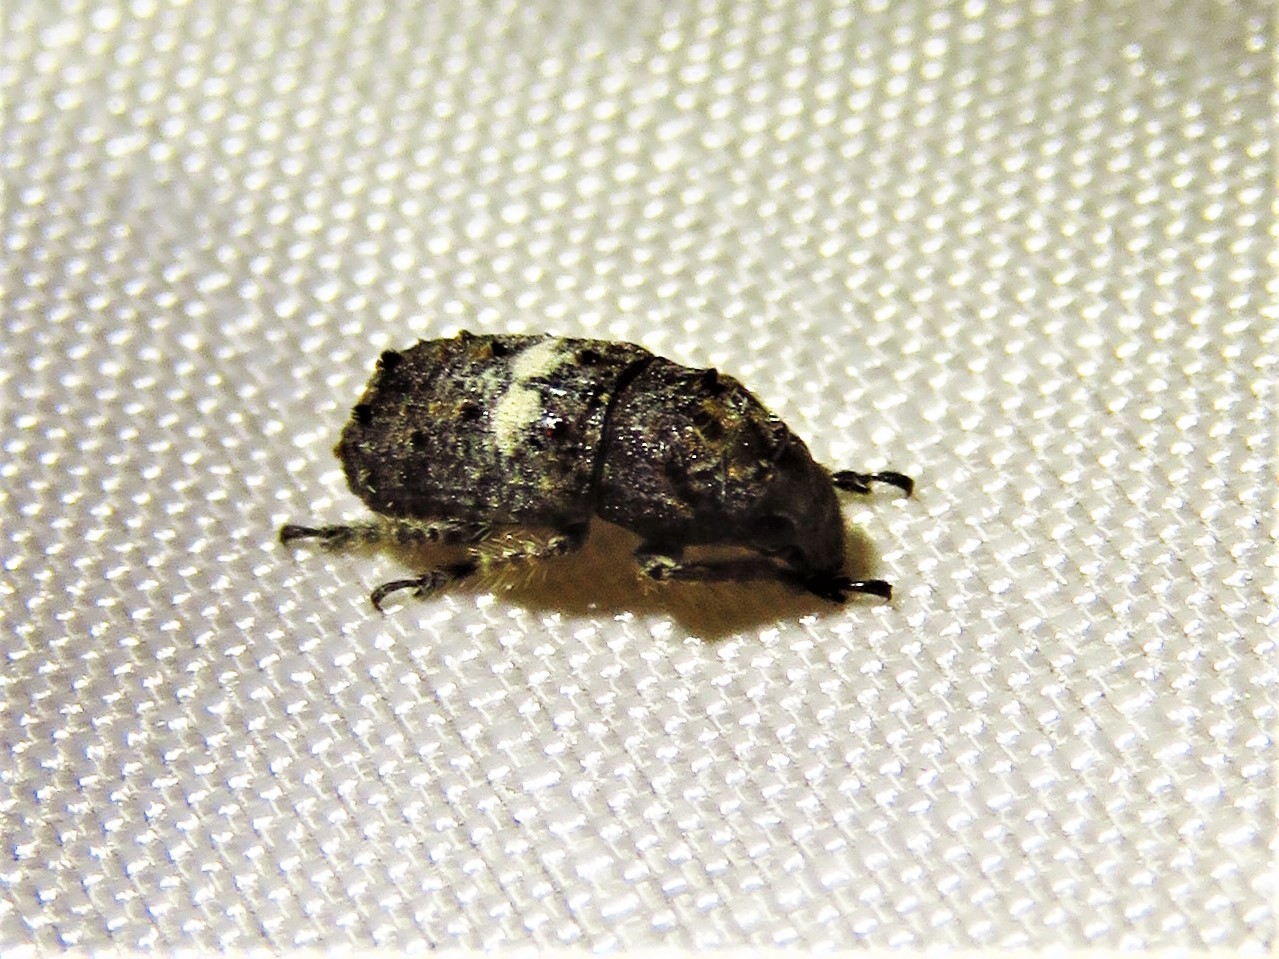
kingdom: Animalia
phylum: Arthropoda
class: Insecta
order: Coleoptera
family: Anthribidae
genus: Toxonotus
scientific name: Toxonotus cornutus
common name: Fungus weevil
